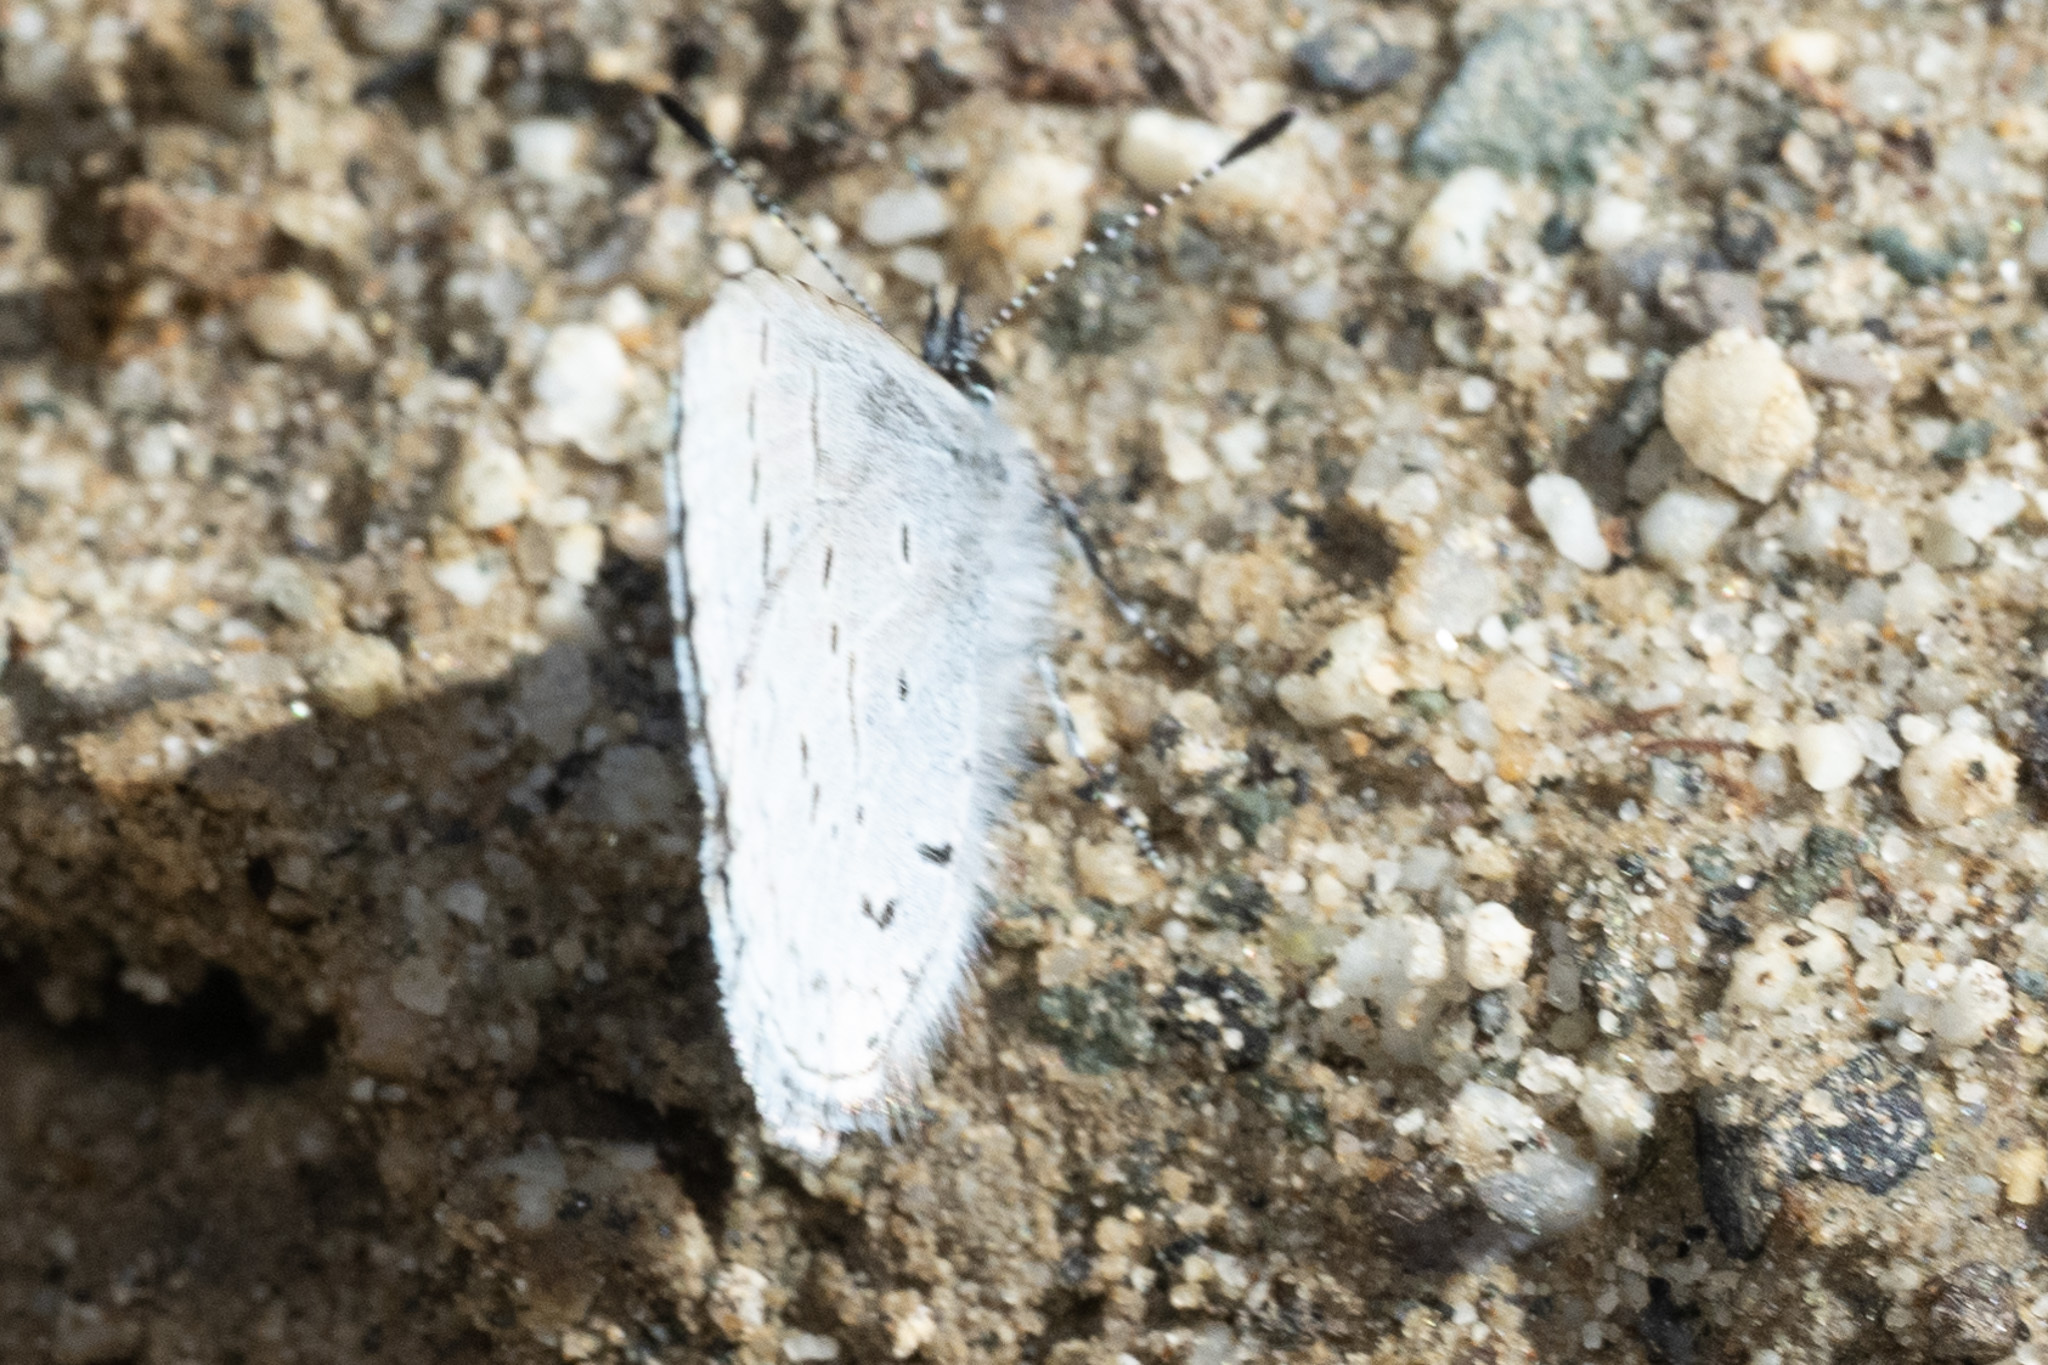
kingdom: Animalia
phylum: Arthropoda
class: Insecta
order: Lepidoptera
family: Lycaenidae
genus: Celastrina
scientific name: Celastrina ladon
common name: Spring azure
